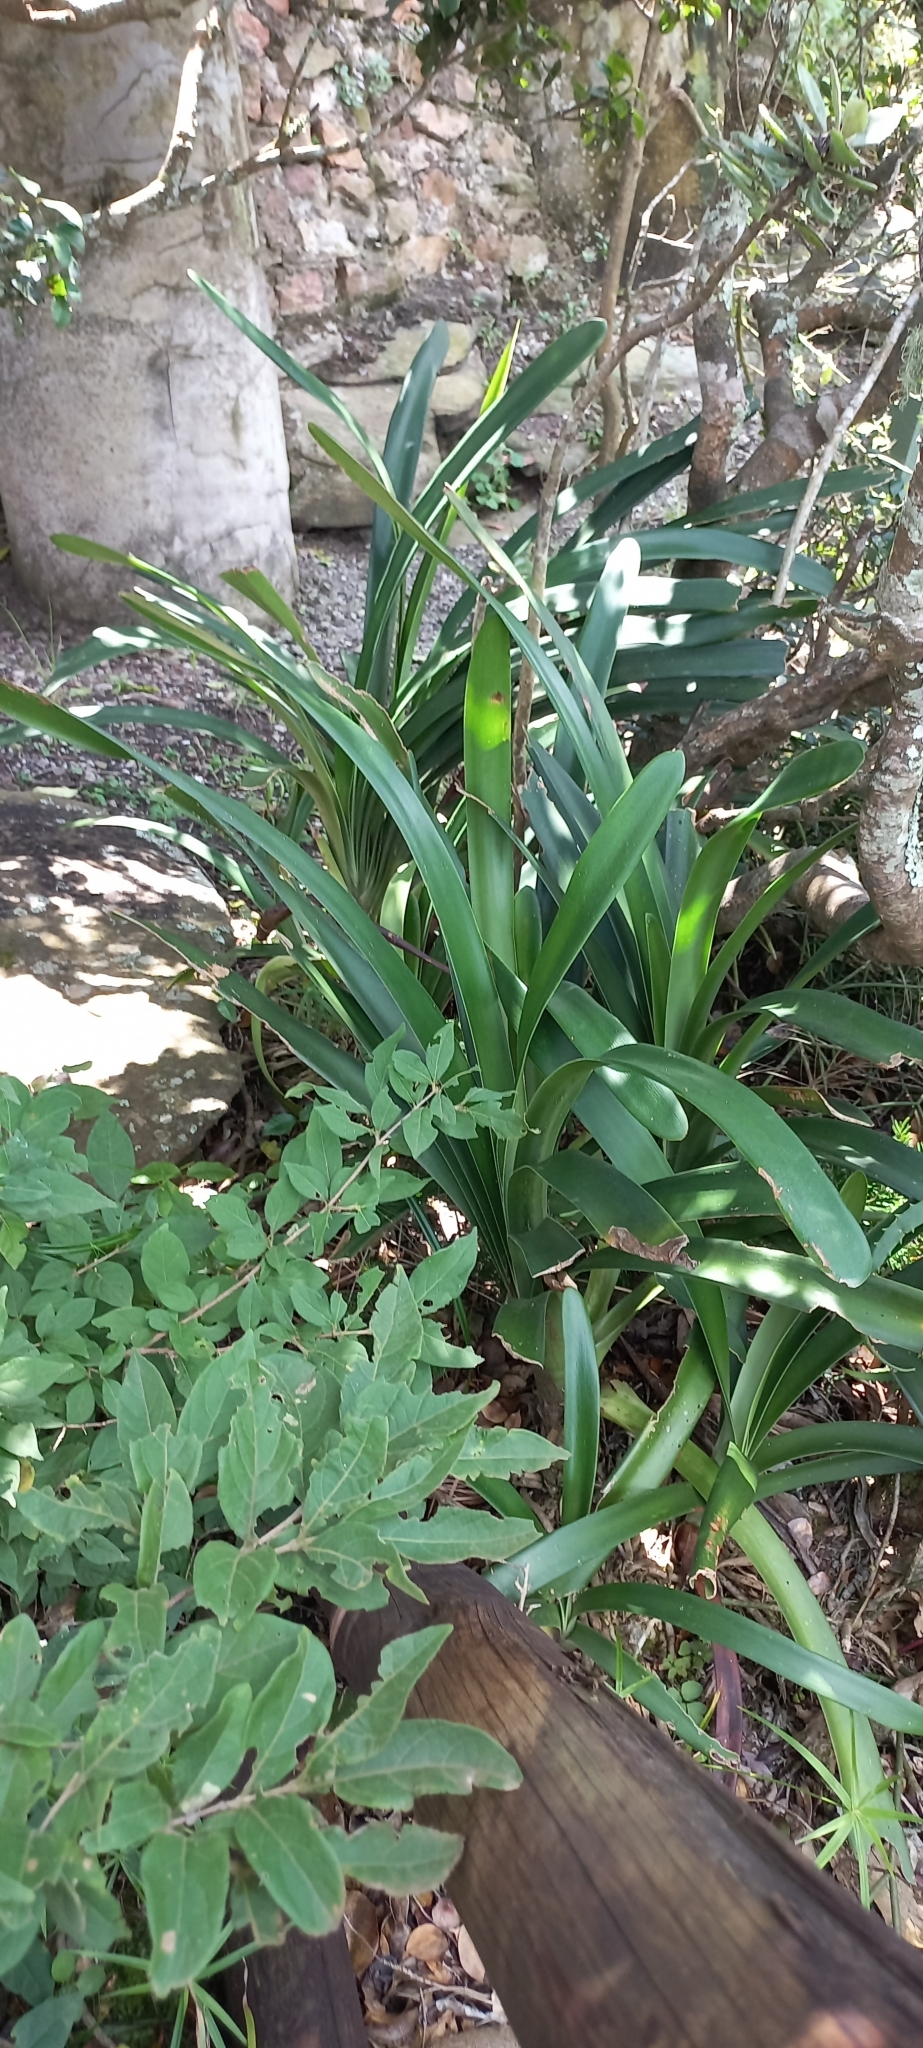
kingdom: Plantae
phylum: Tracheophyta
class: Liliopsida
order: Asparagales
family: Amaryllidaceae
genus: Clivia
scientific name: Clivia robusta
